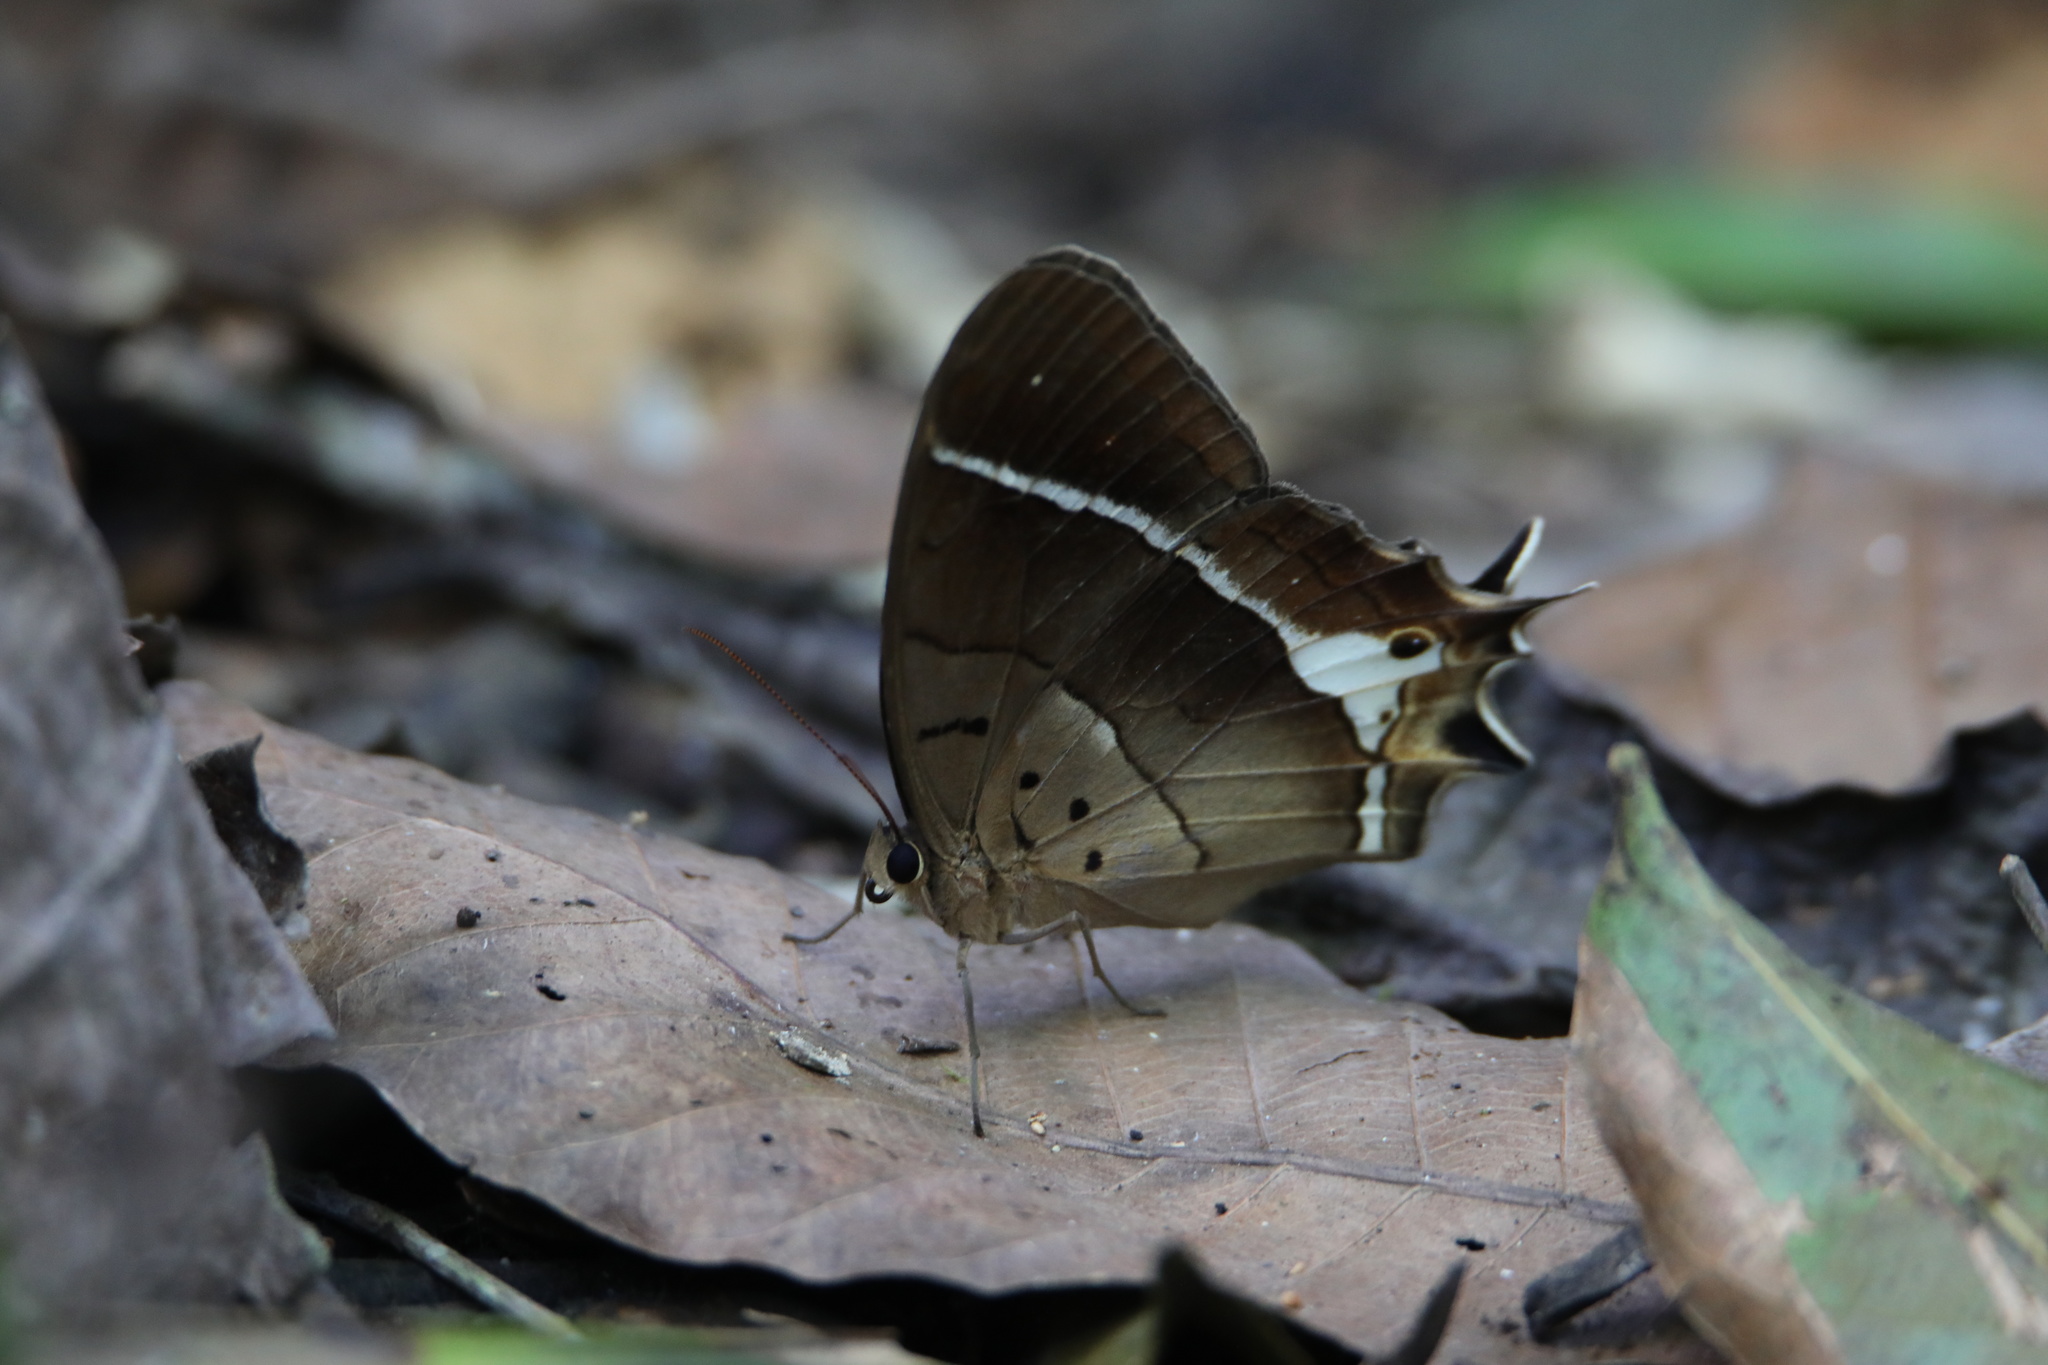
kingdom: Animalia
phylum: Arthropoda
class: Insecta
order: Lepidoptera
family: Nymphalidae
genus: Antirrhea
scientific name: Antirrhea philoctetes
